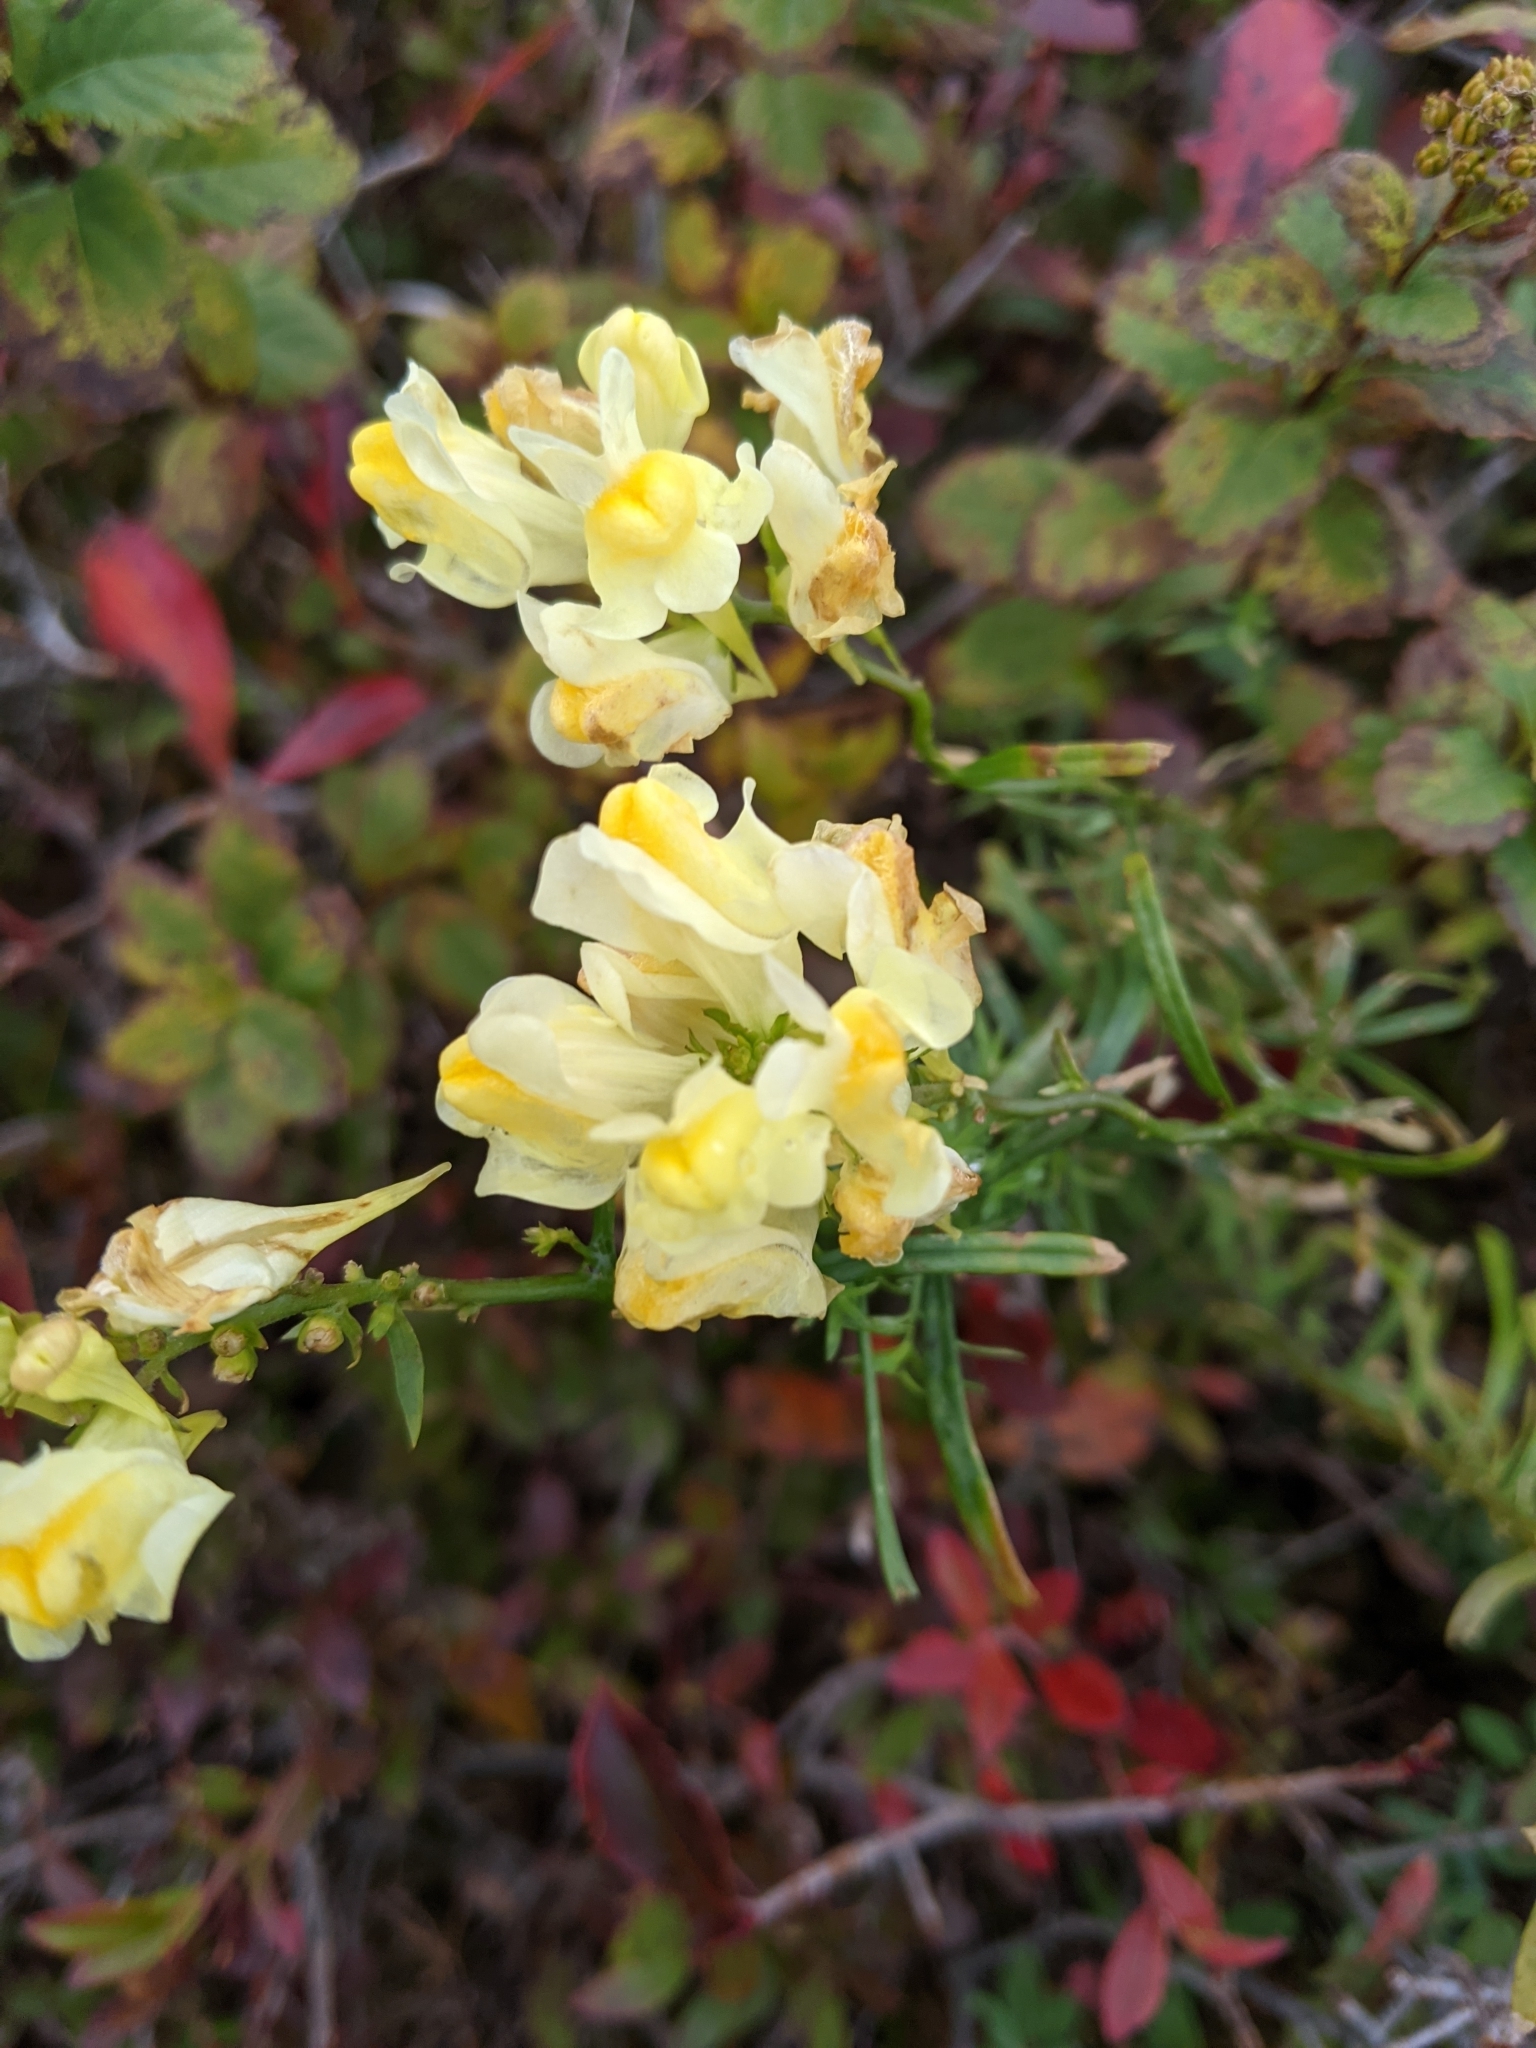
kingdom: Plantae
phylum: Tracheophyta
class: Magnoliopsida
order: Lamiales
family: Plantaginaceae
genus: Linaria
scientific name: Linaria vulgaris
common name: Butter and eggs
